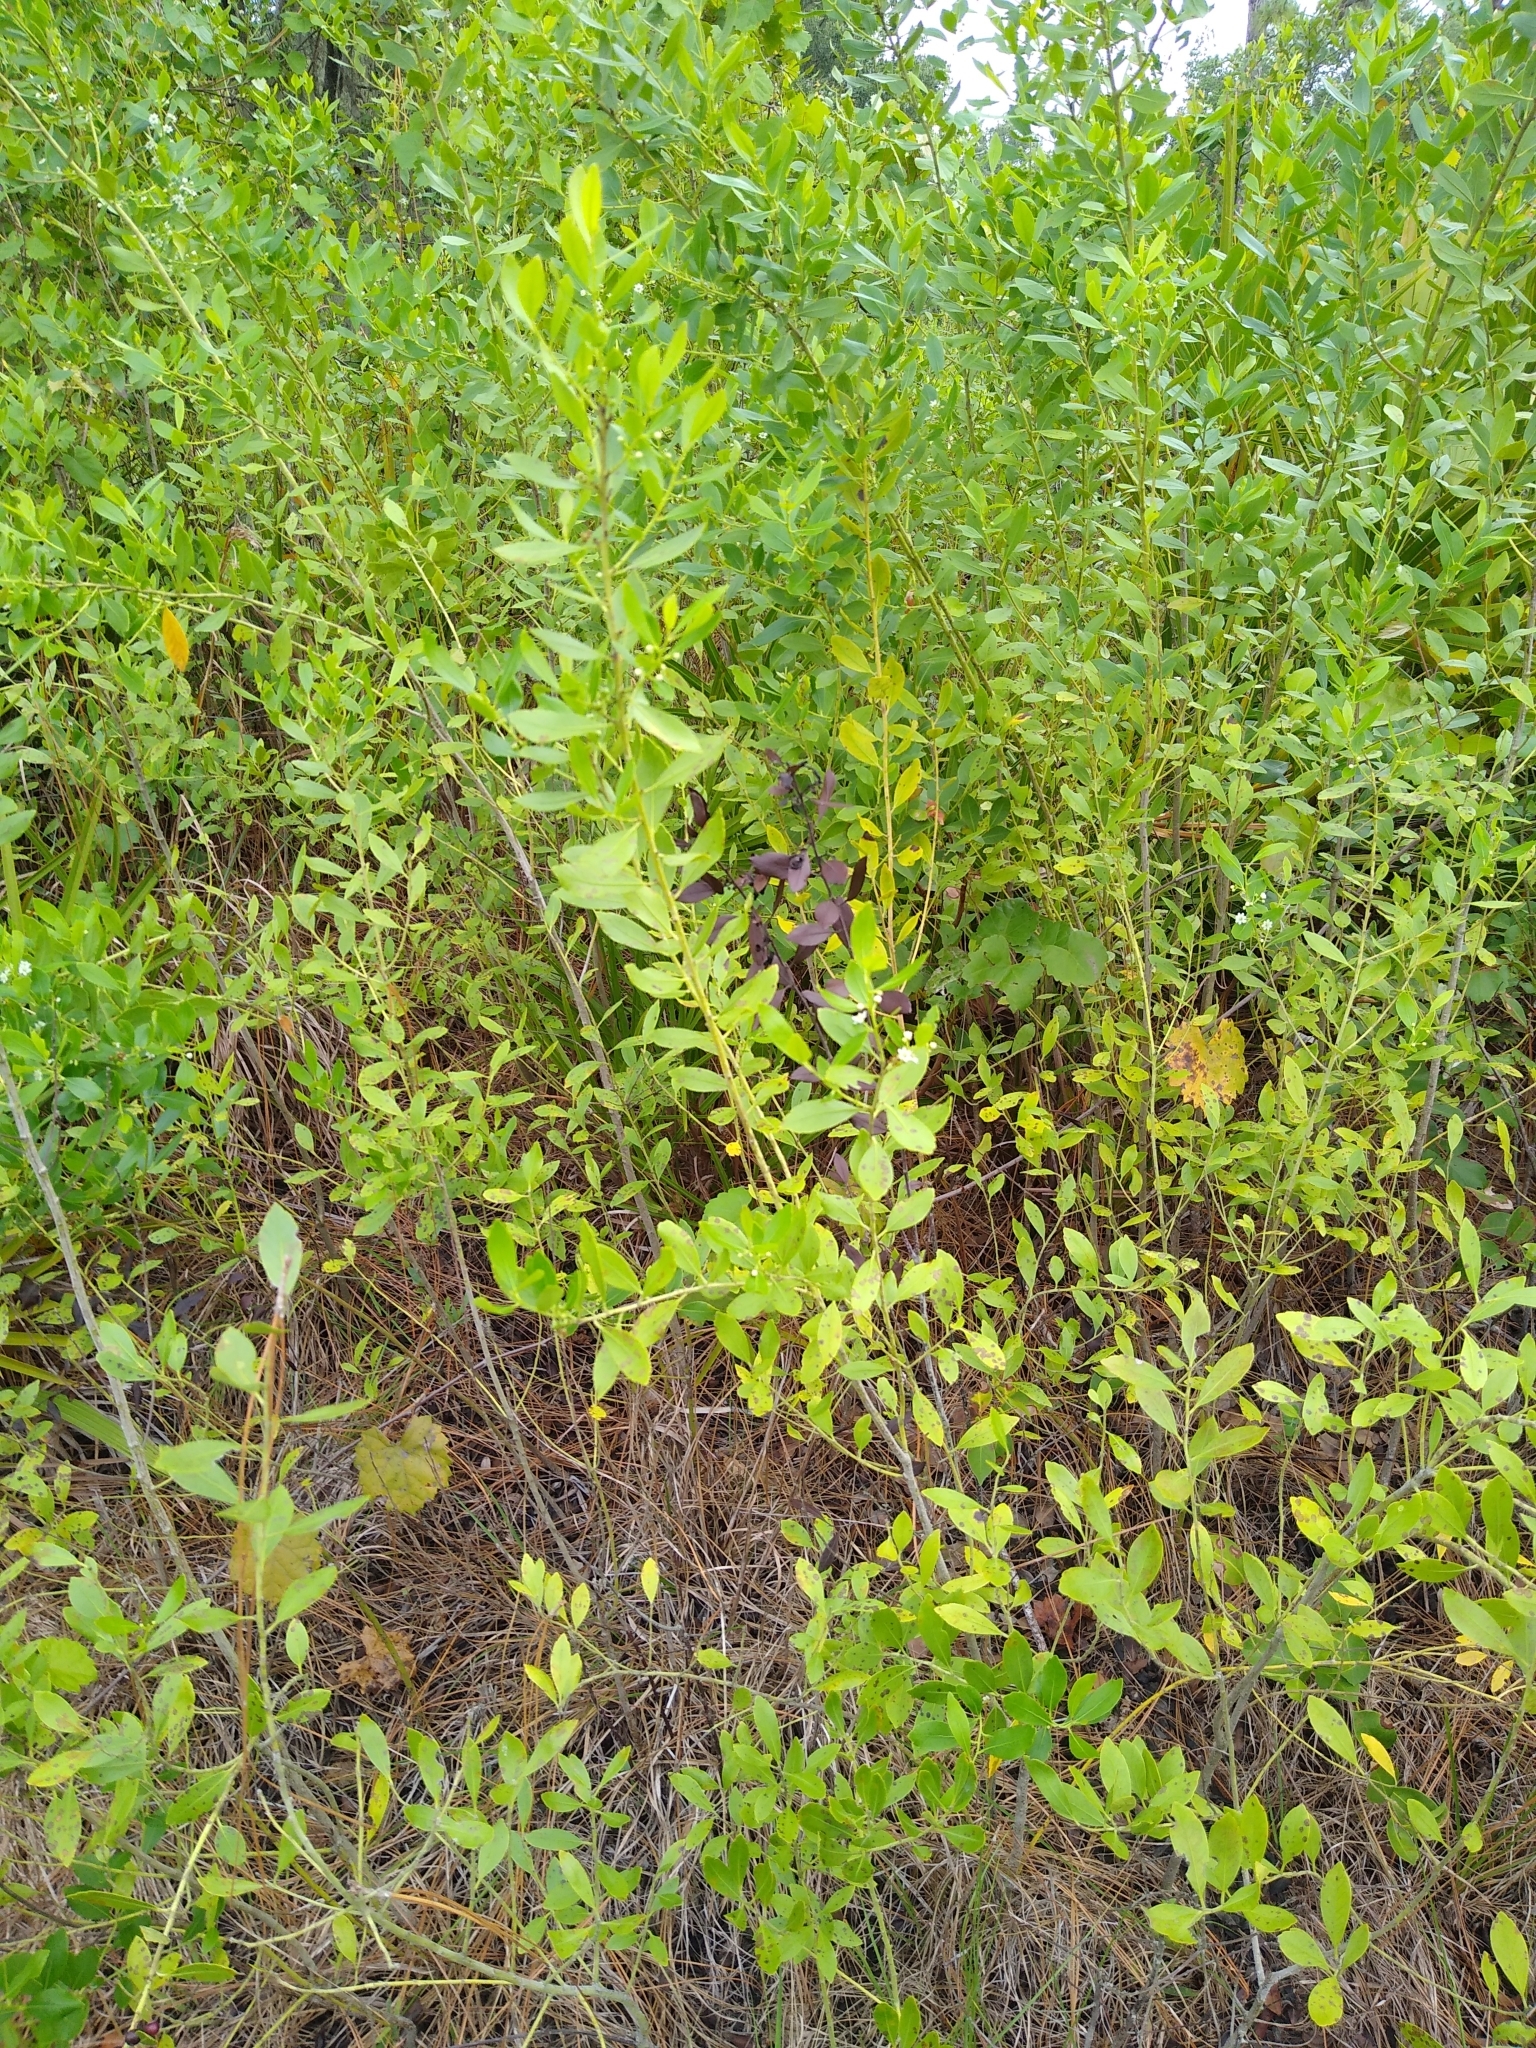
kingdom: Plantae
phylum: Tracheophyta
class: Magnoliopsida
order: Aquifoliales
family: Aquifoliaceae
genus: Ilex
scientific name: Ilex glabra
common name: Bitter gallberry
